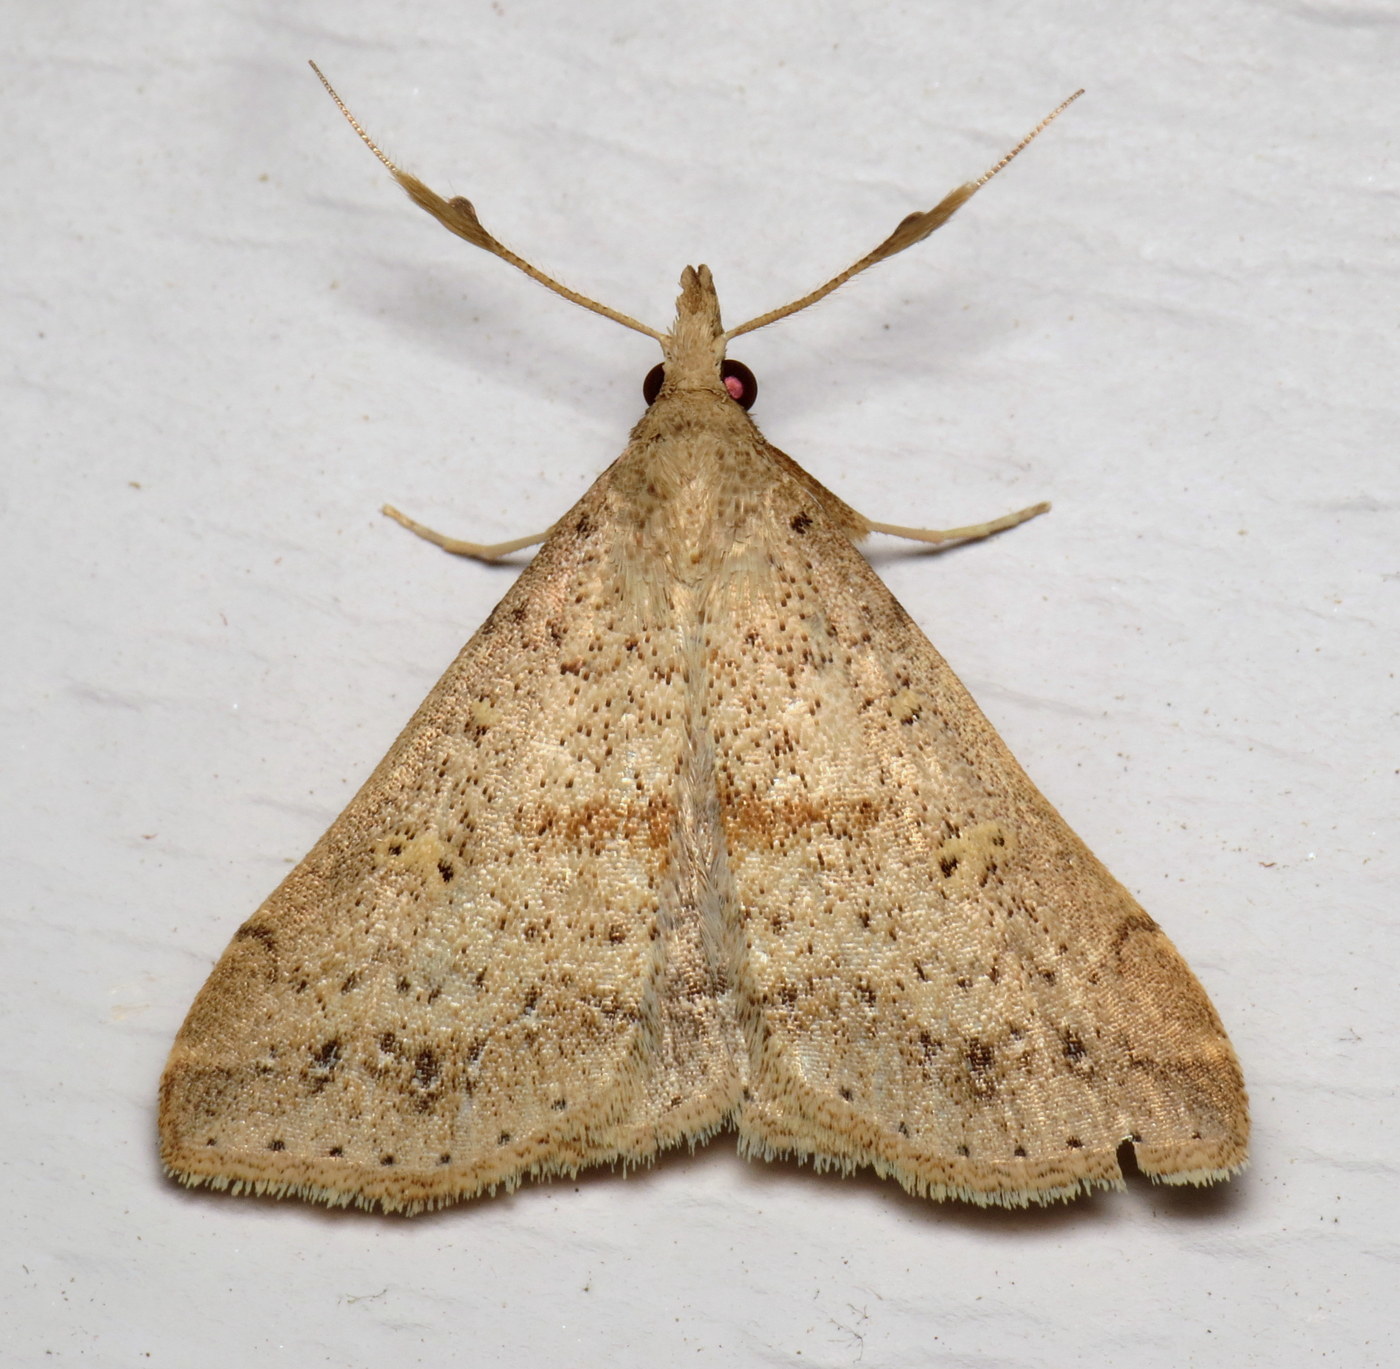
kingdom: Animalia
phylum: Arthropoda
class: Insecta
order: Lepidoptera
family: Erebidae
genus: Renia
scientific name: Renia salusalis
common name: Dotted renia moth
